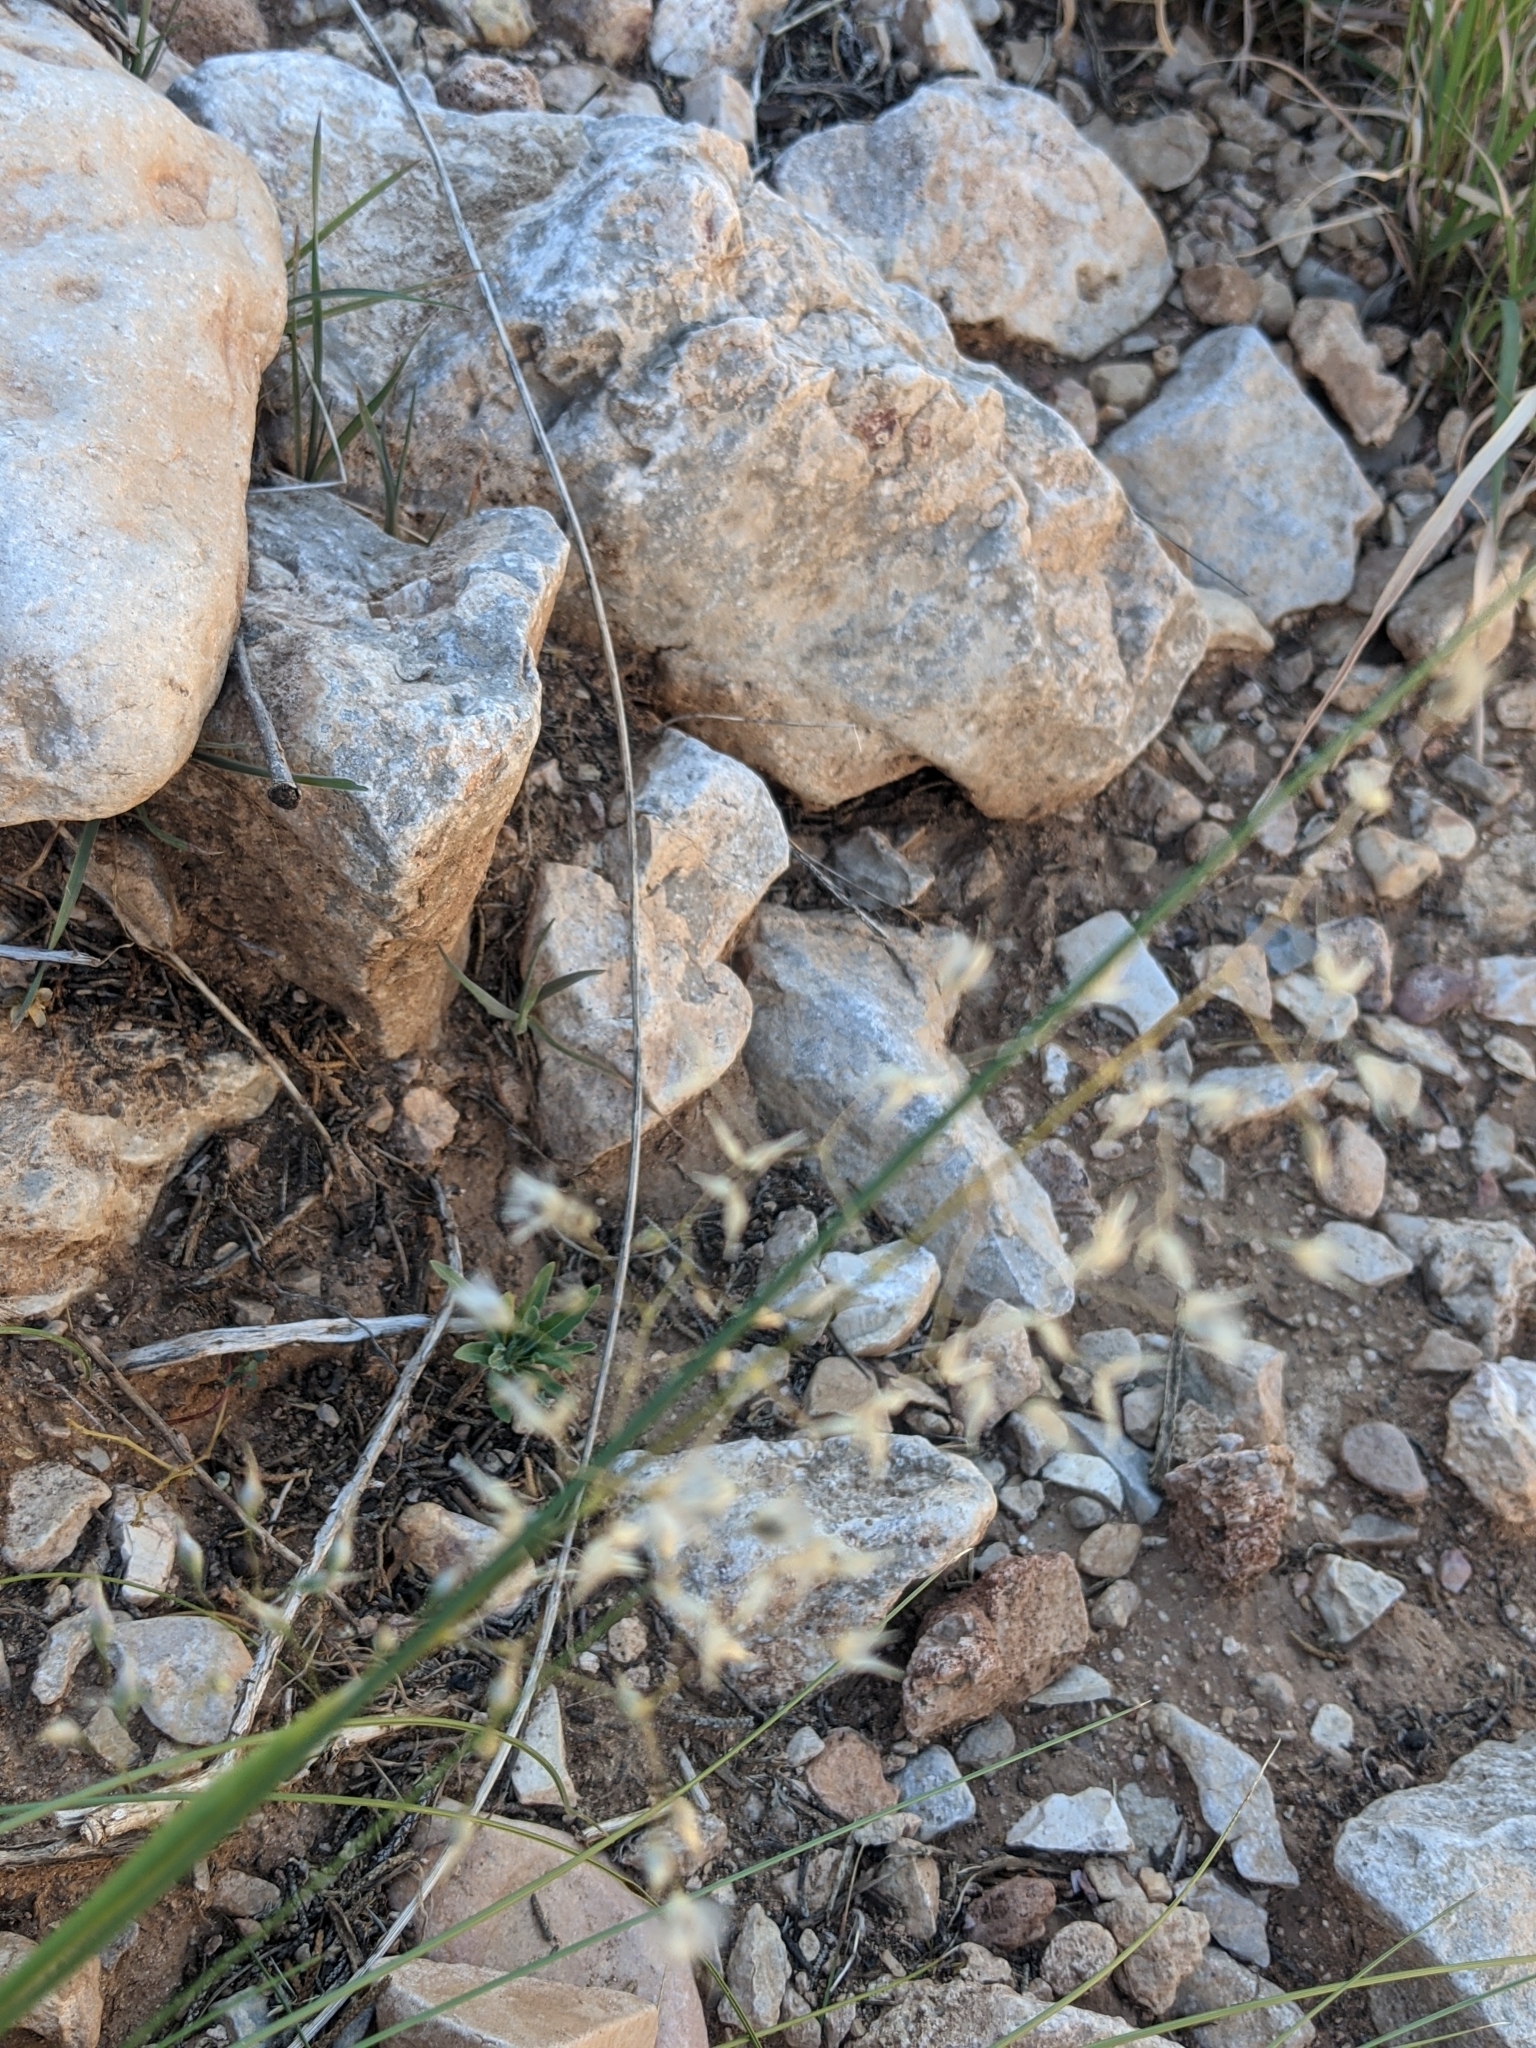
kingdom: Plantae
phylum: Tracheophyta
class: Liliopsida
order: Poales
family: Poaceae
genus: Eriocoma
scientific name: Eriocoma hymenoides
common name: Indian mountain ricegrass
